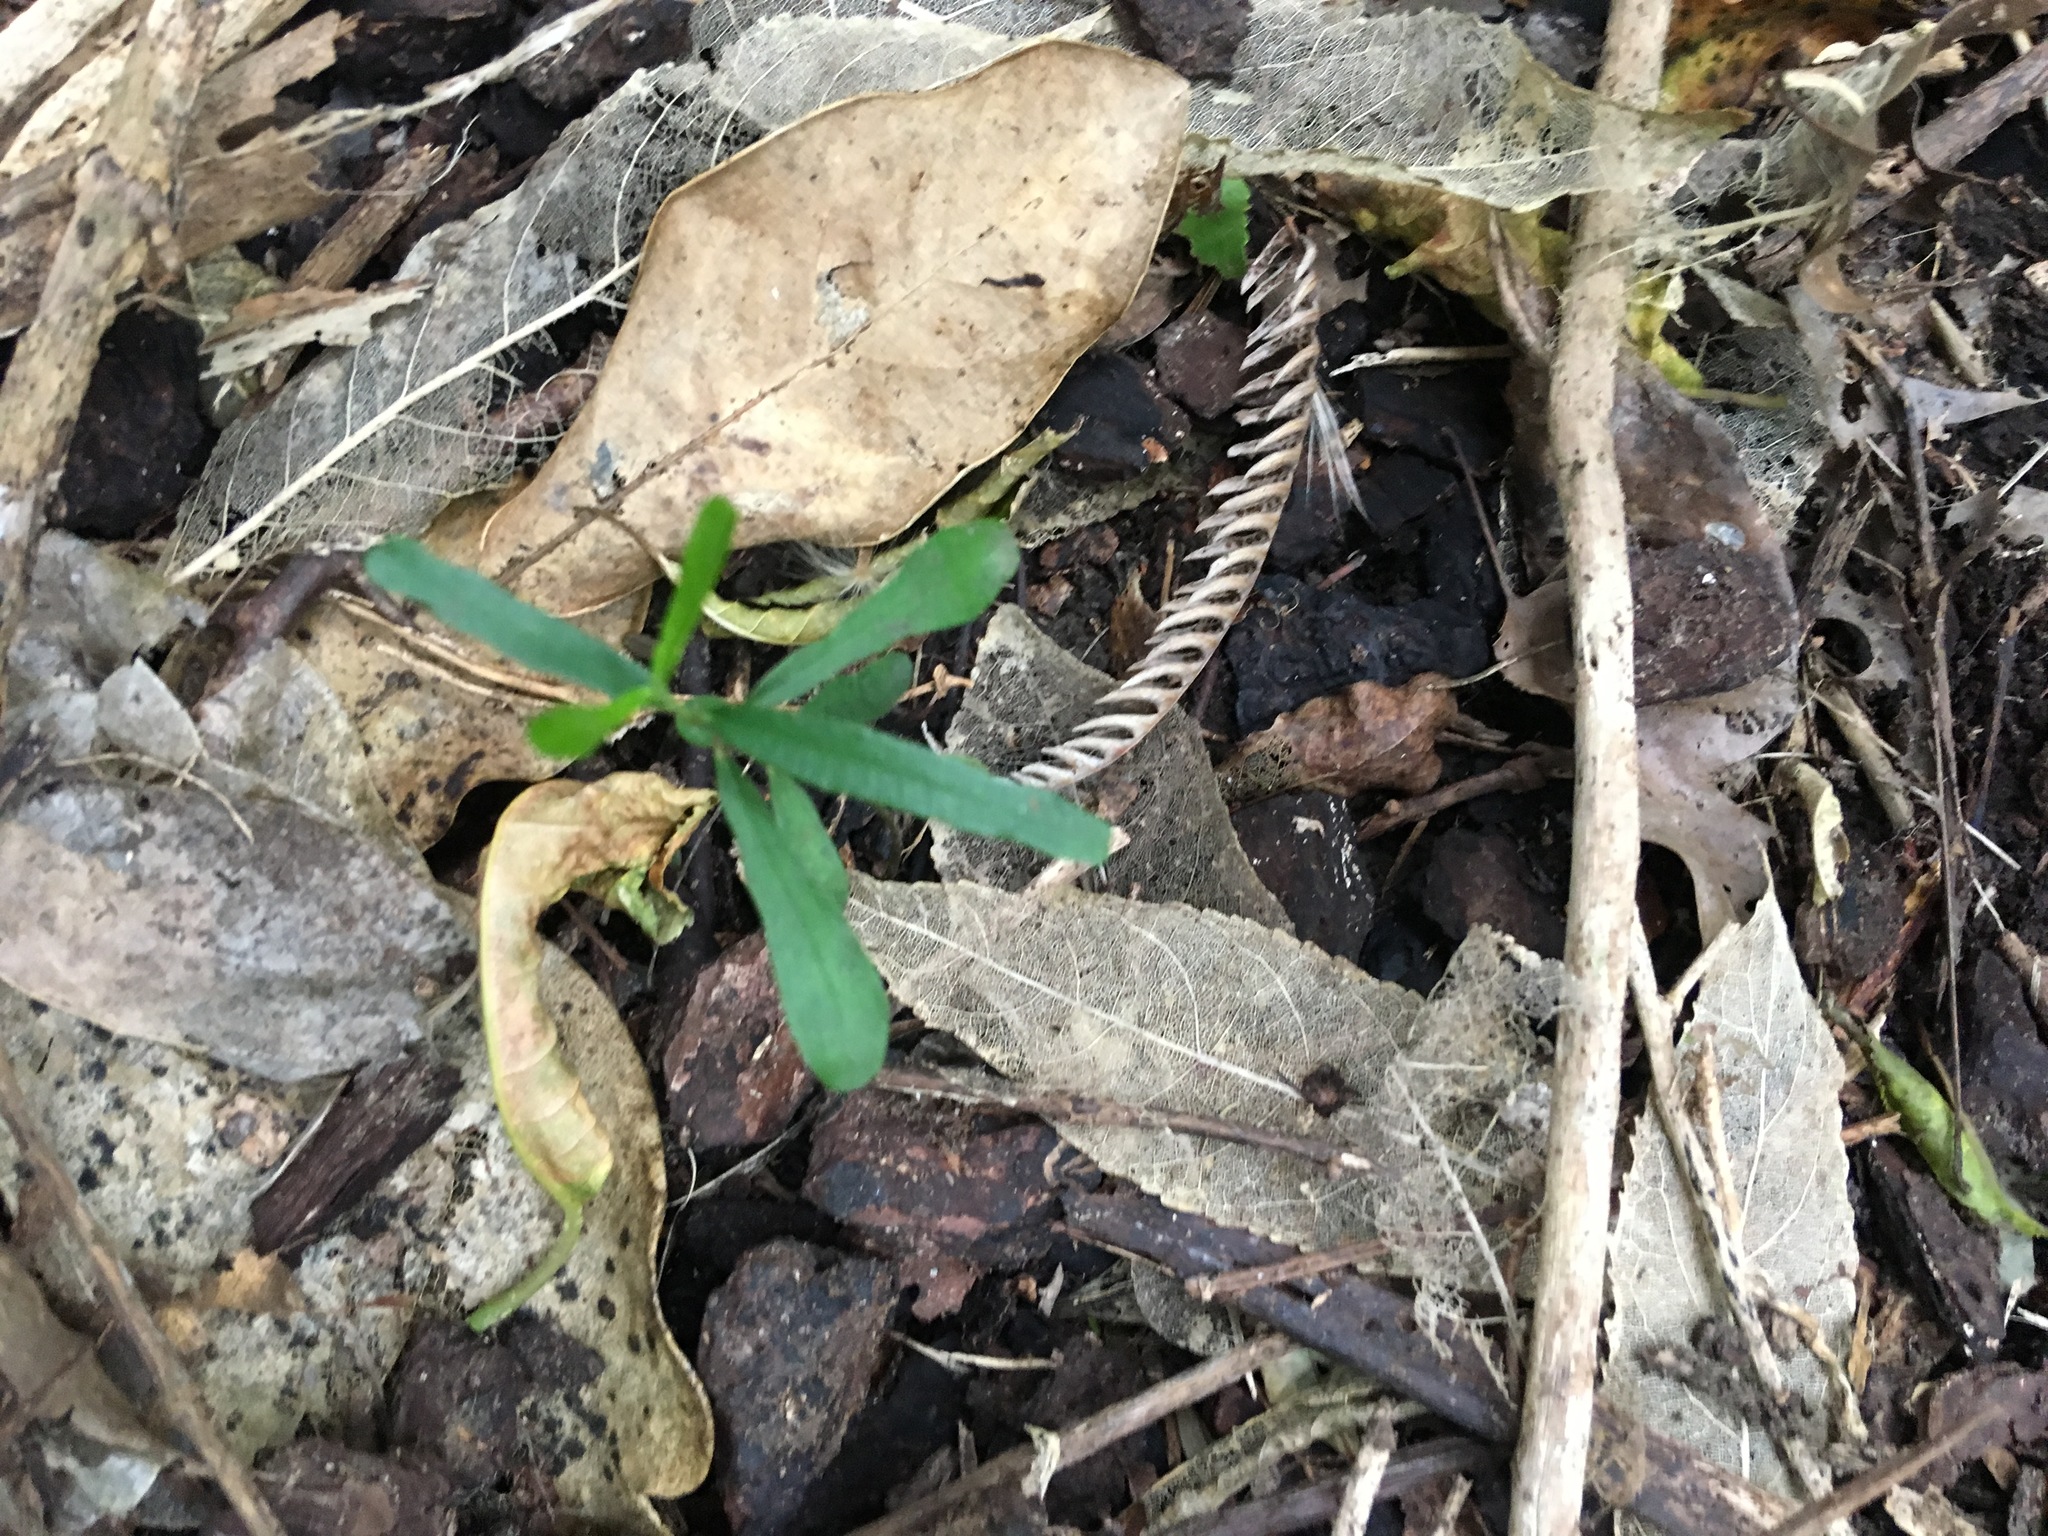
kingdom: Plantae
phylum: Tracheophyta
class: Magnoliopsida
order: Gentianales
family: Apocynaceae
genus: Parsonsia
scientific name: Parsonsia heterophylla
